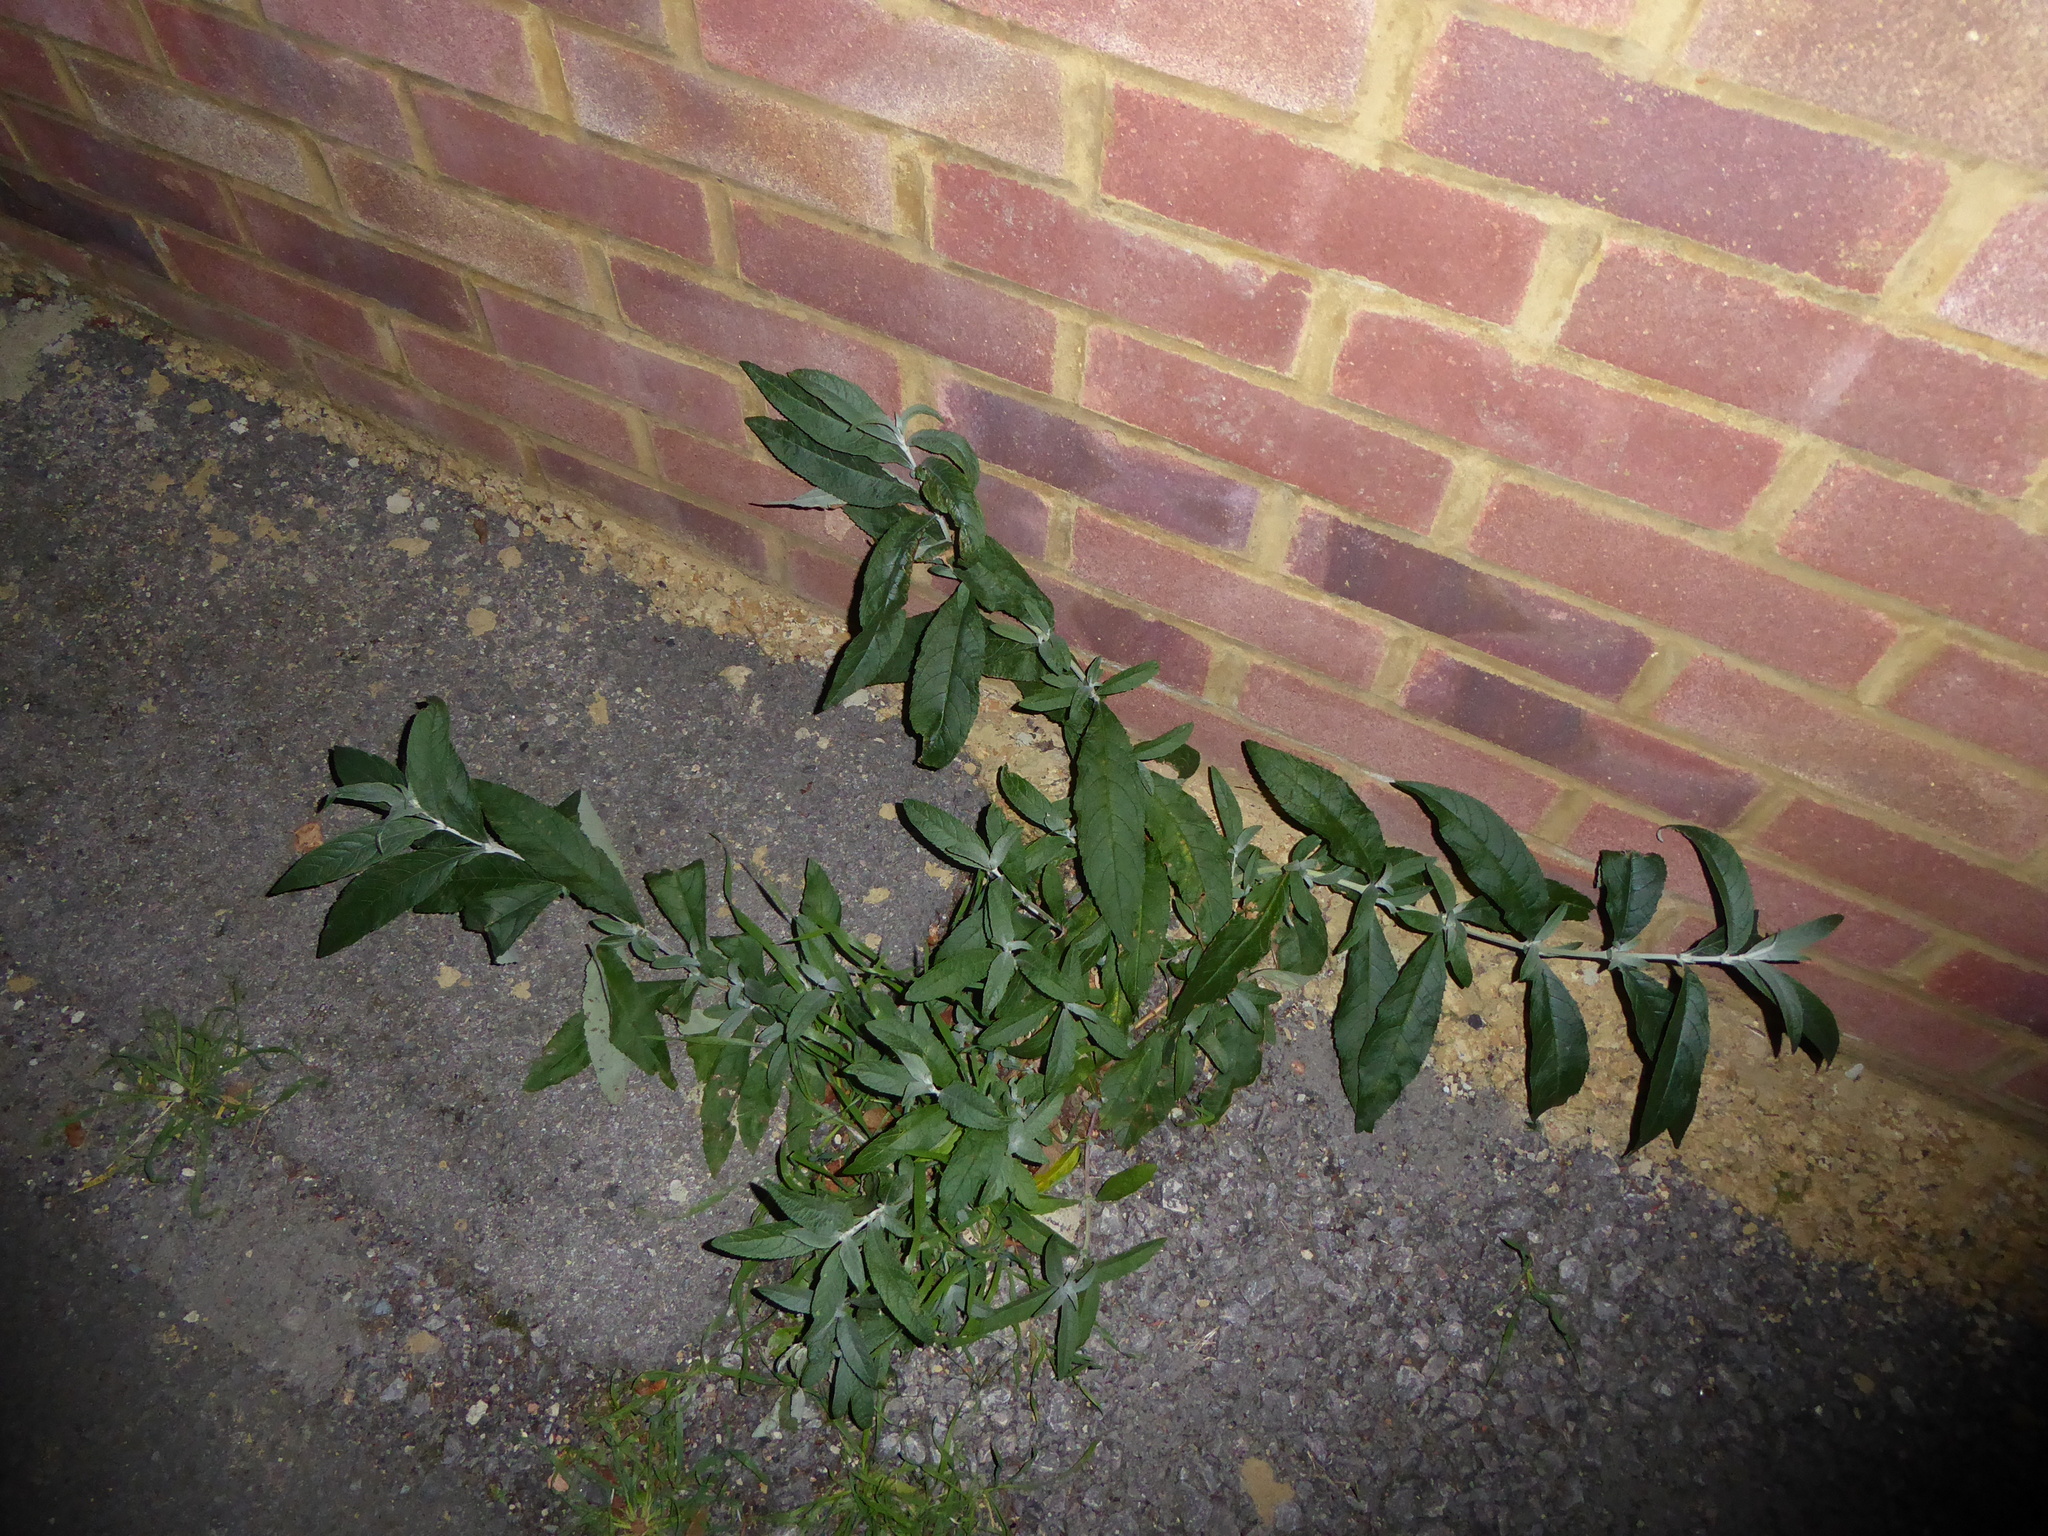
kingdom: Plantae
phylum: Tracheophyta
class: Magnoliopsida
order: Lamiales
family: Scrophulariaceae
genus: Buddleja
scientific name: Buddleja davidii
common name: Butterfly-bush
